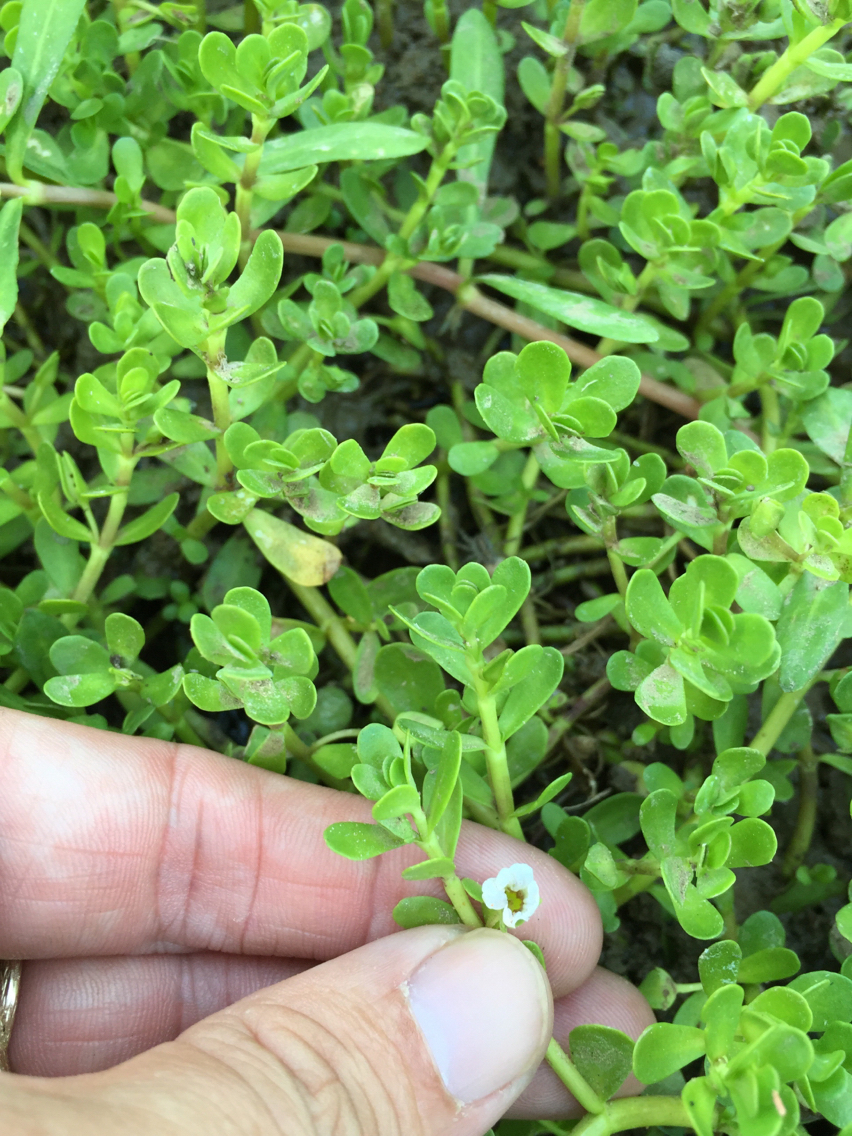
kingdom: Plantae
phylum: Tracheophyta
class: Magnoliopsida
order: Lamiales
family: Plantaginaceae
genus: Bacopa
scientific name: Bacopa monnieri
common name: Indian-pennywort
